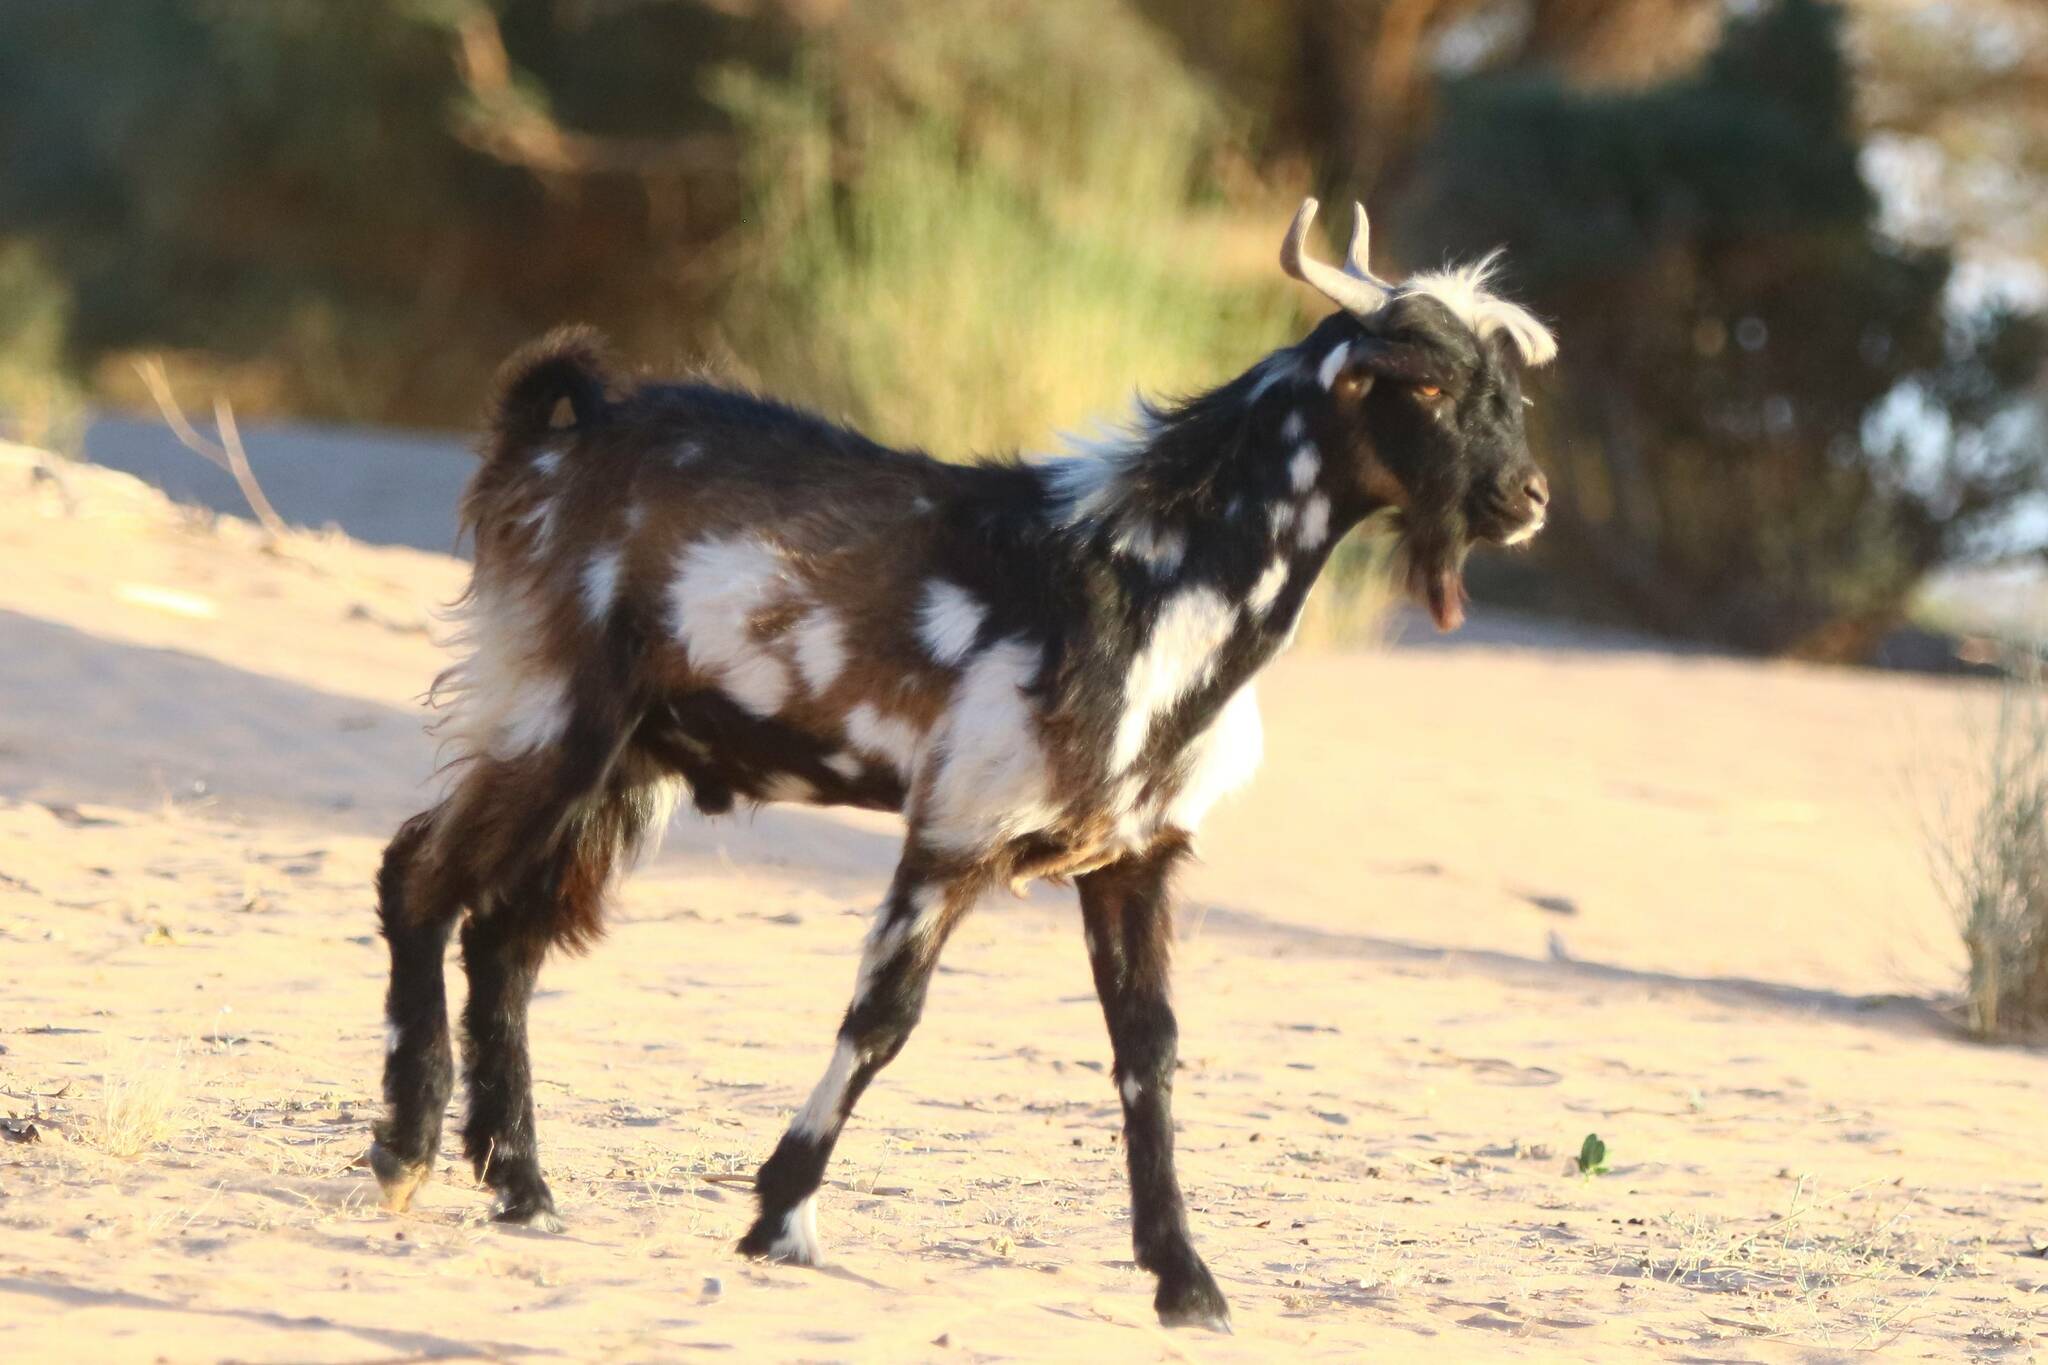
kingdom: Animalia
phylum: Chordata
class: Mammalia
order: Artiodactyla
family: Bovidae
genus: Capra
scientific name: Capra hircus
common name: Domestic goat
